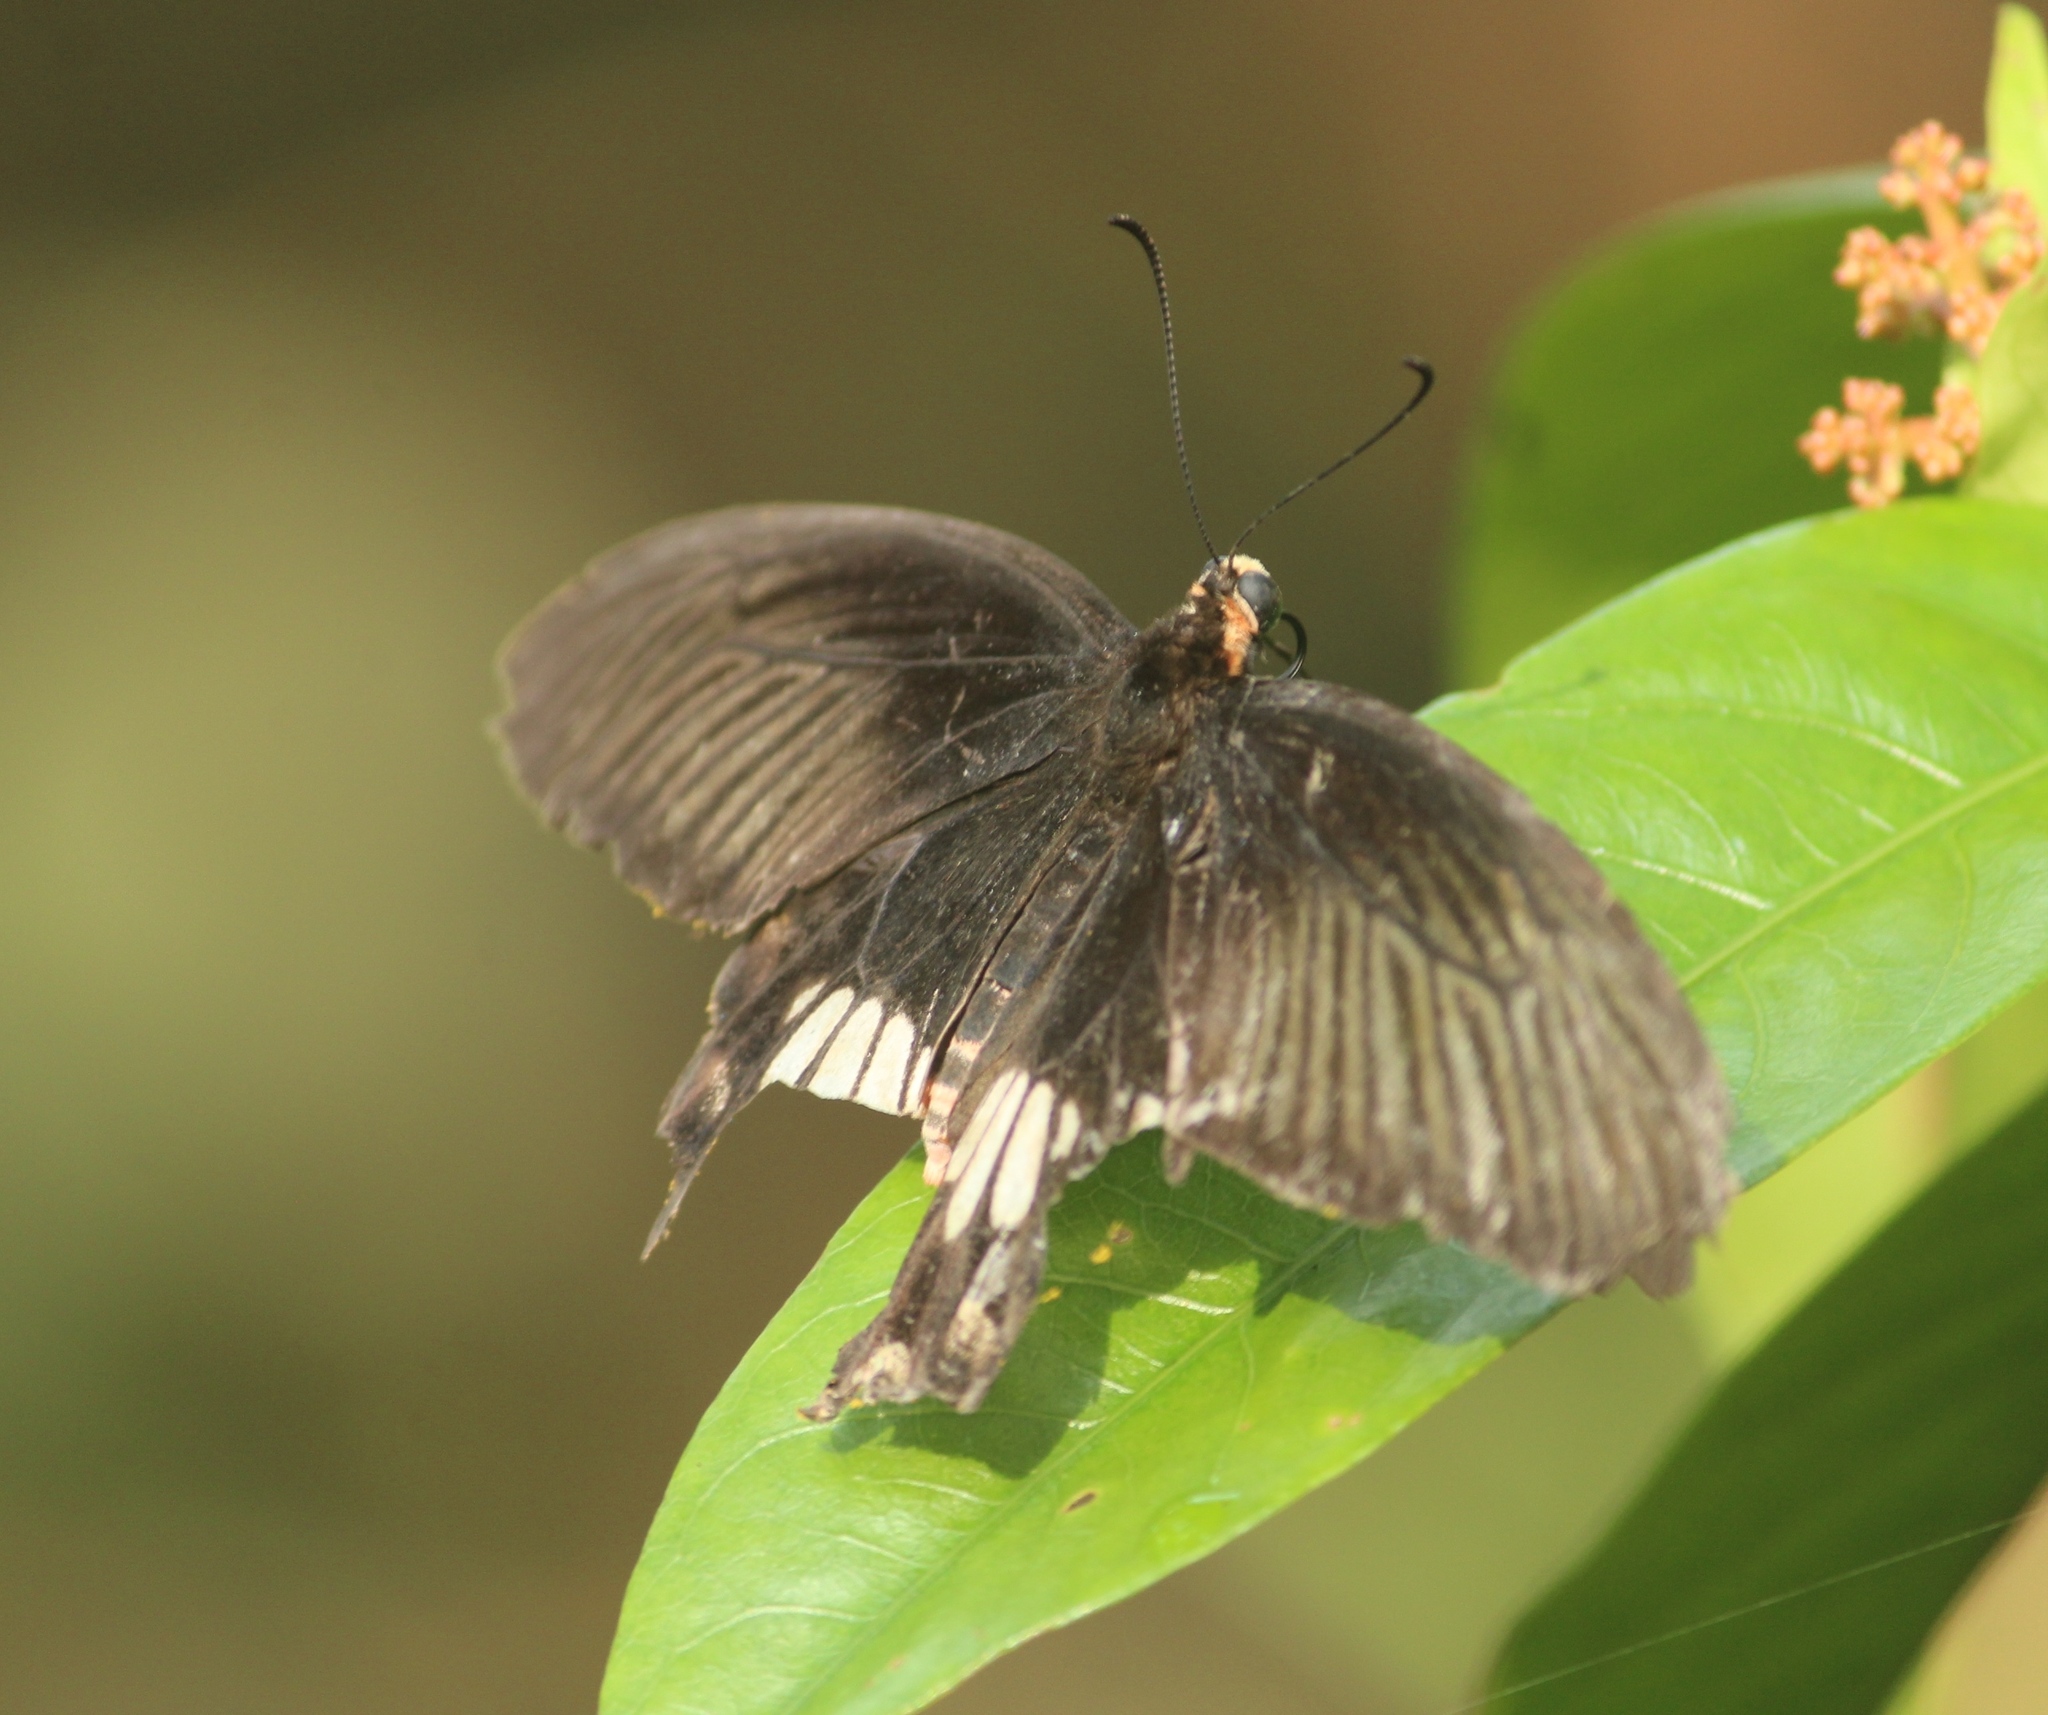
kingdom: Animalia
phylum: Arthropoda
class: Insecta
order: Lepidoptera
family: Papilionidae
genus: Pachliopta
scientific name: Pachliopta aristolochiae
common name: Common rose
